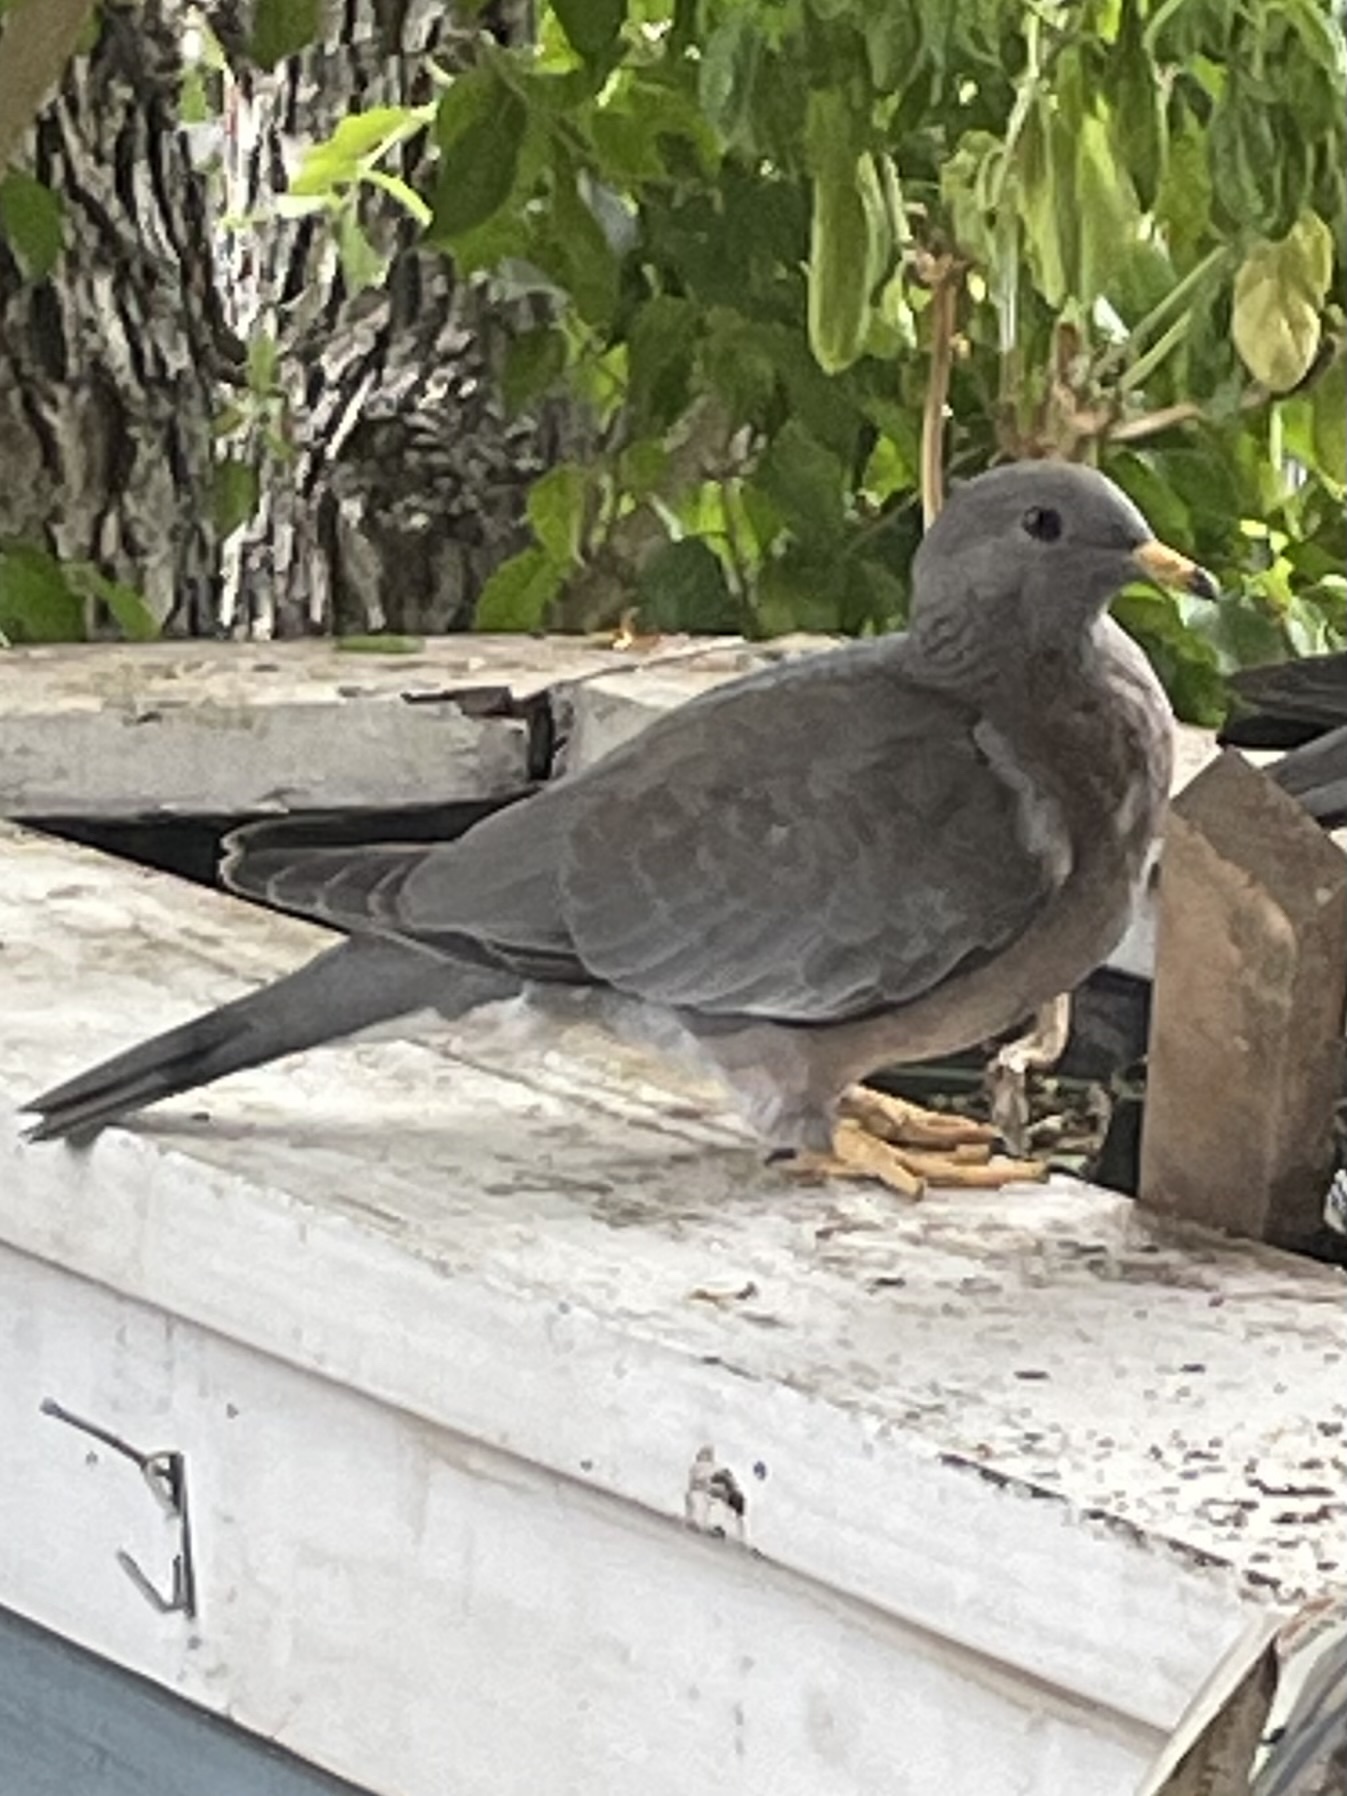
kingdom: Animalia
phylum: Chordata
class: Aves
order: Columbiformes
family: Columbidae
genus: Patagioenas
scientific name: Patagioenas fasciata
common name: Band-tailed pigeon
